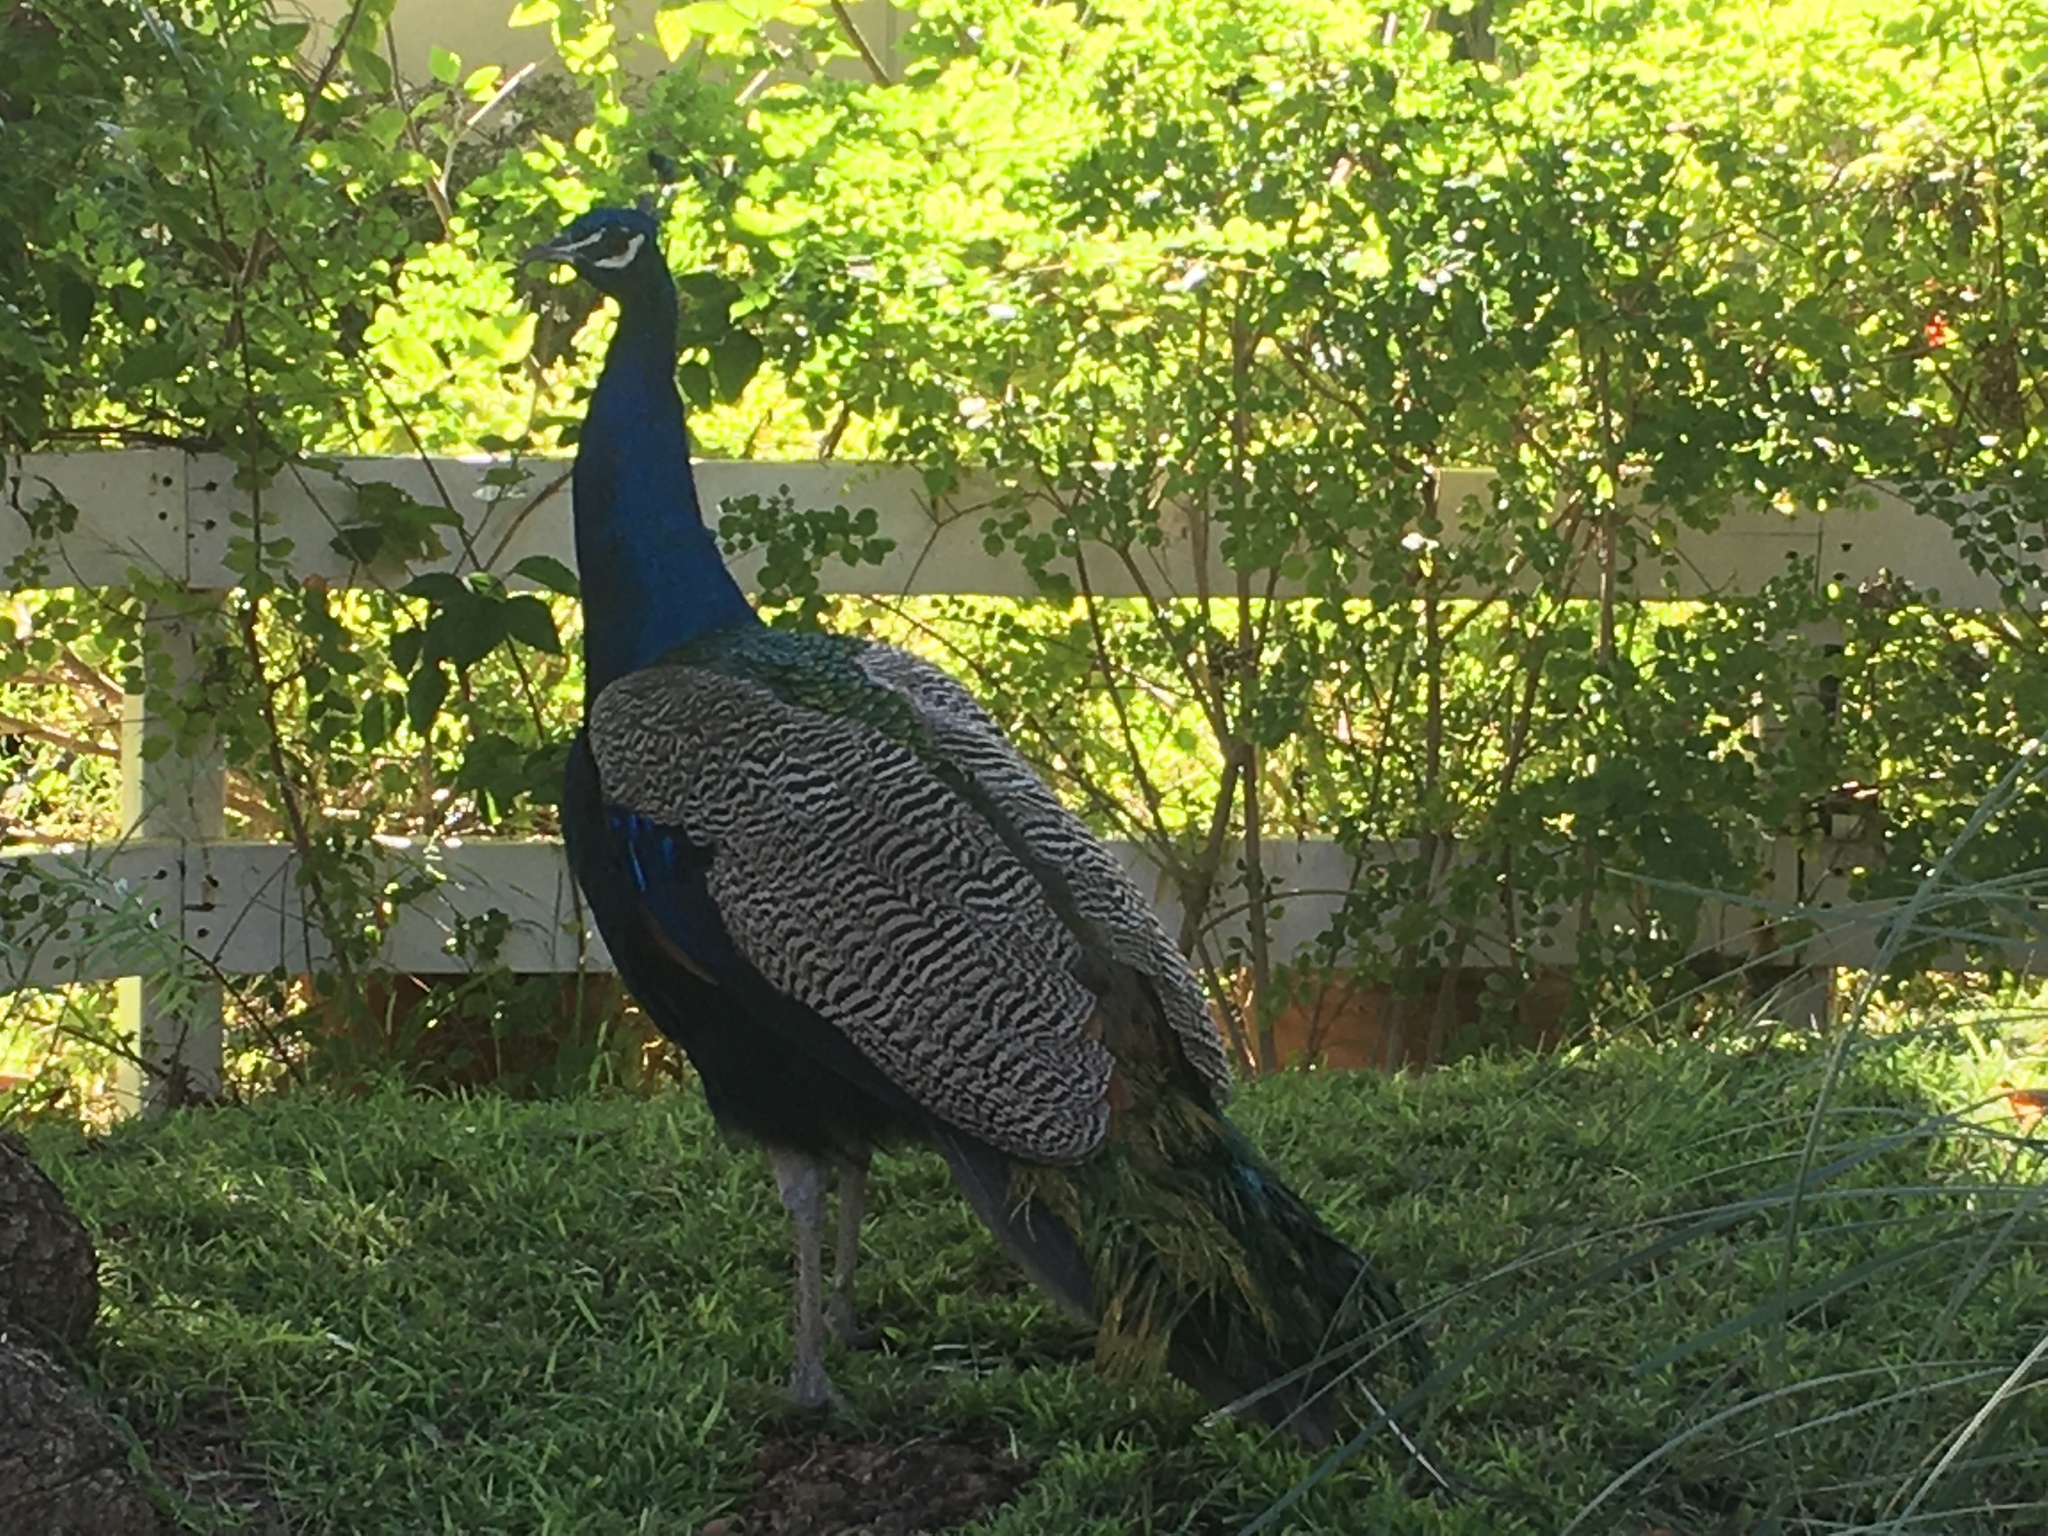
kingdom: Animalia
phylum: Chordata
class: Aves
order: Galliformes
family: Phasianidae
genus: Pavo
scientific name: Pavo cristatus
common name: Indian peafowl
